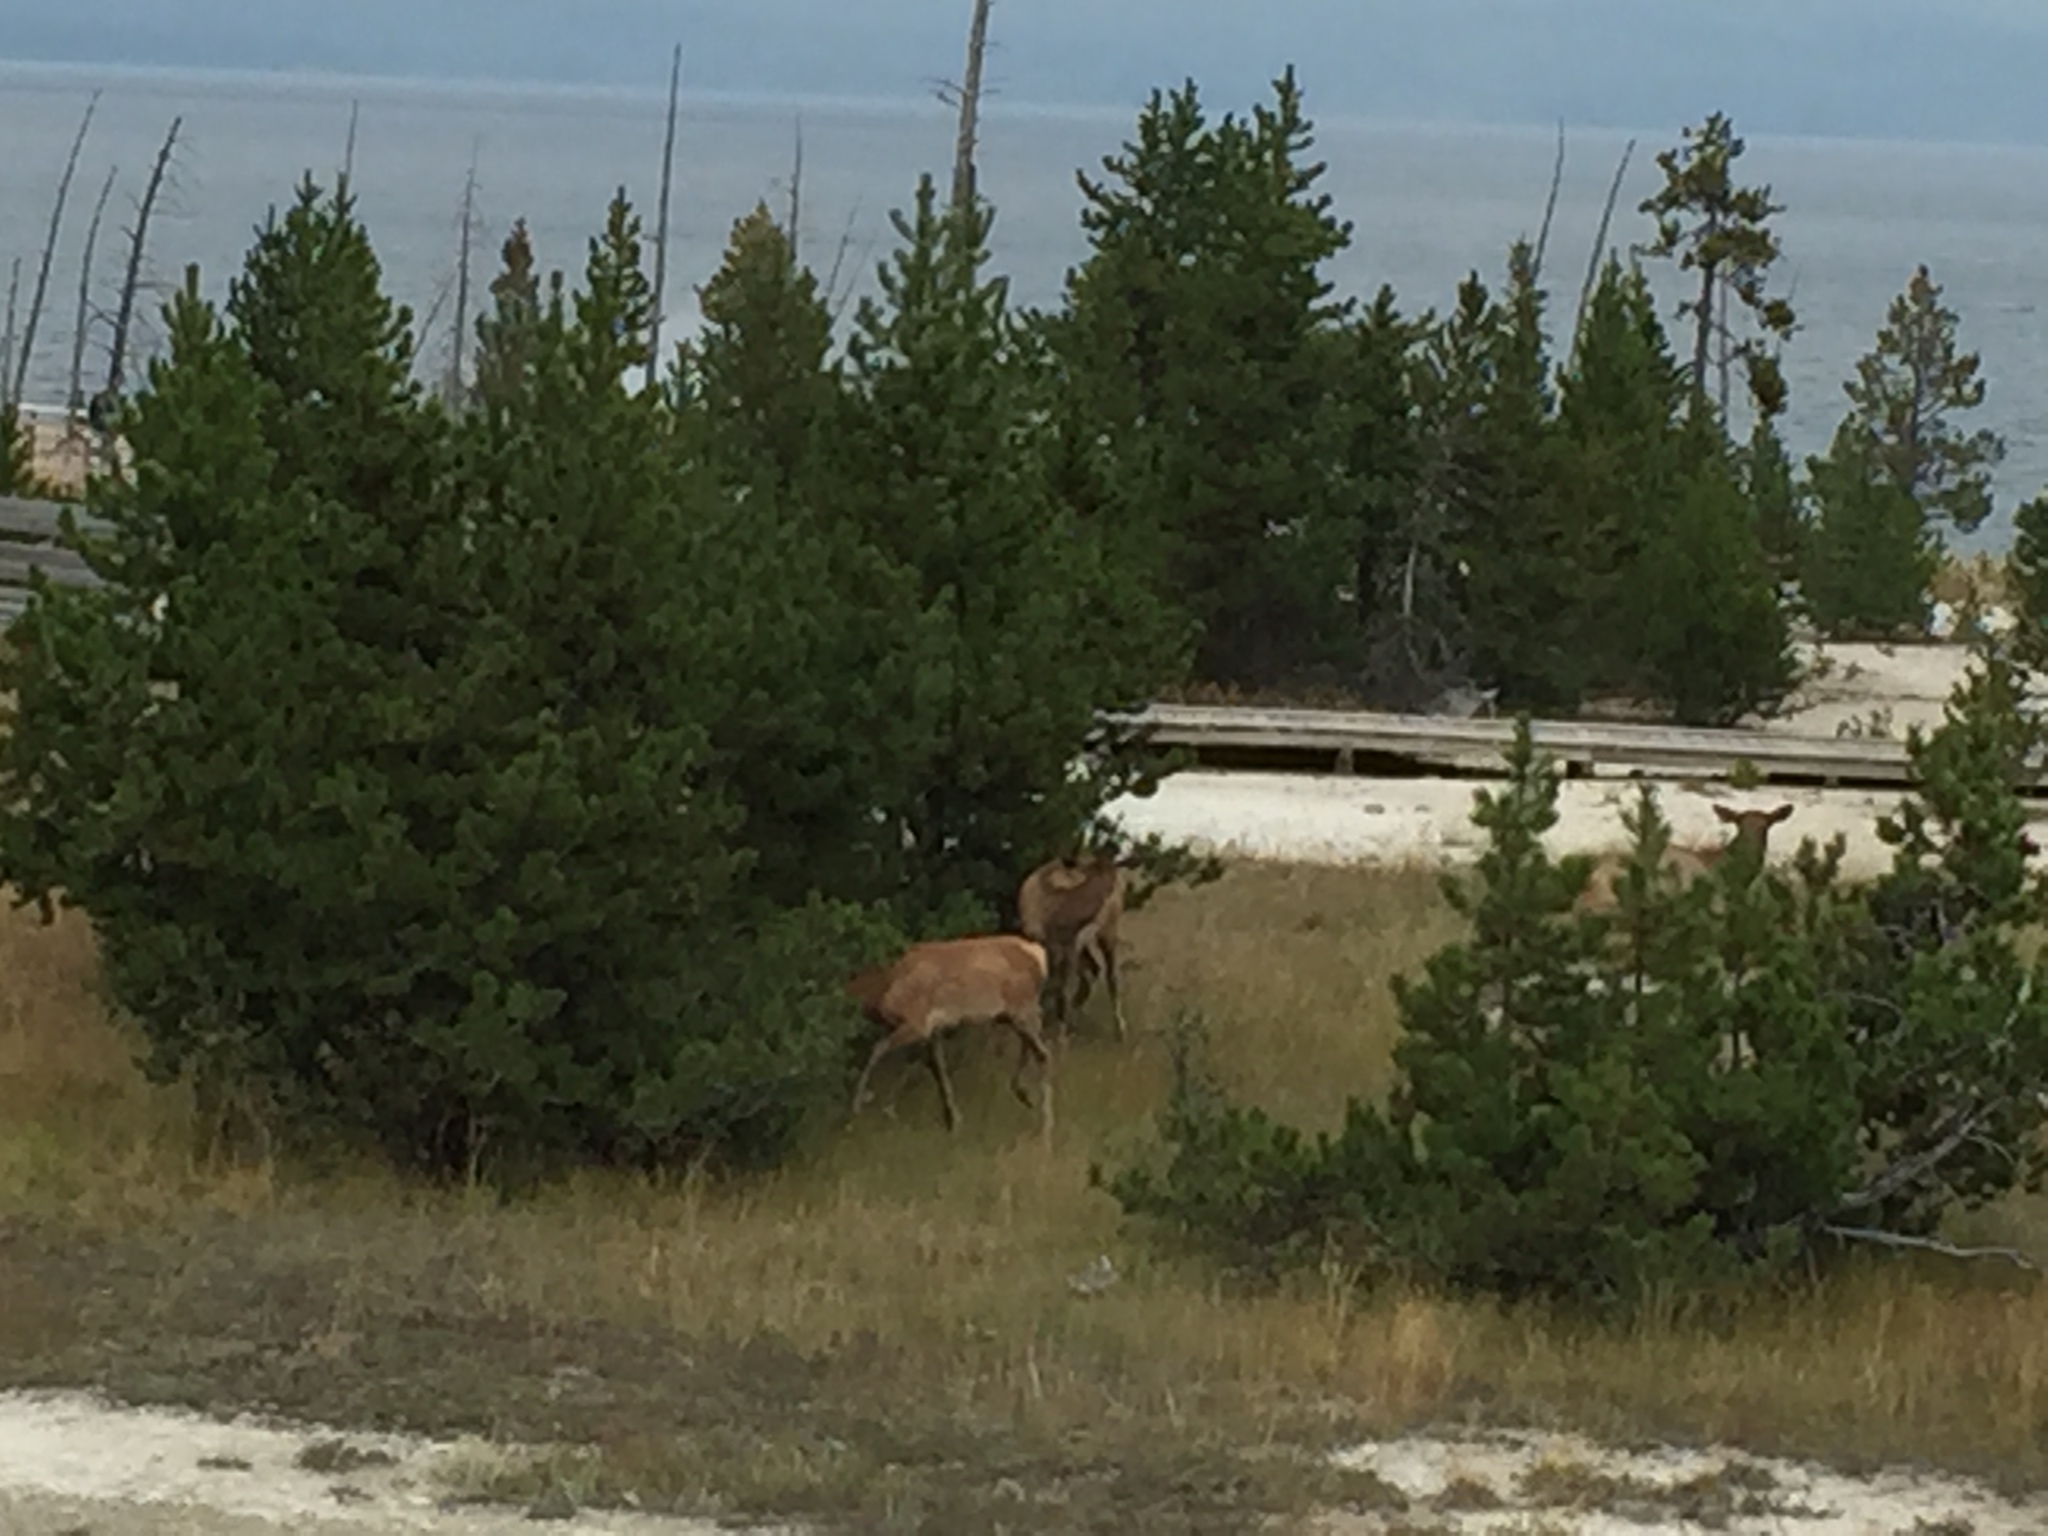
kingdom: Animalia
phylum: Chordata
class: Mammalia
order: Artiodactyla
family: Cervidae
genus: Cervus
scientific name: Cervus elaphus
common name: Red deer
